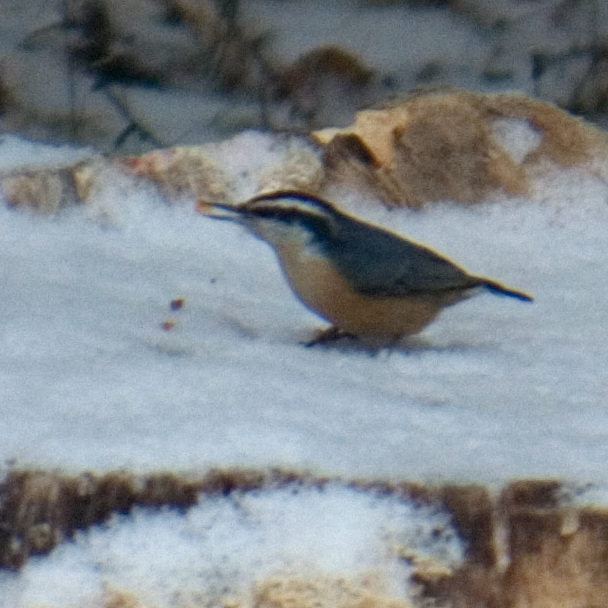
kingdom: Animalia
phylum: Chordata
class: Aves
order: Passeriformes
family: Sittidae
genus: Sitta
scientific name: Sitta canadensis
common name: Red-breasted nuthatch
